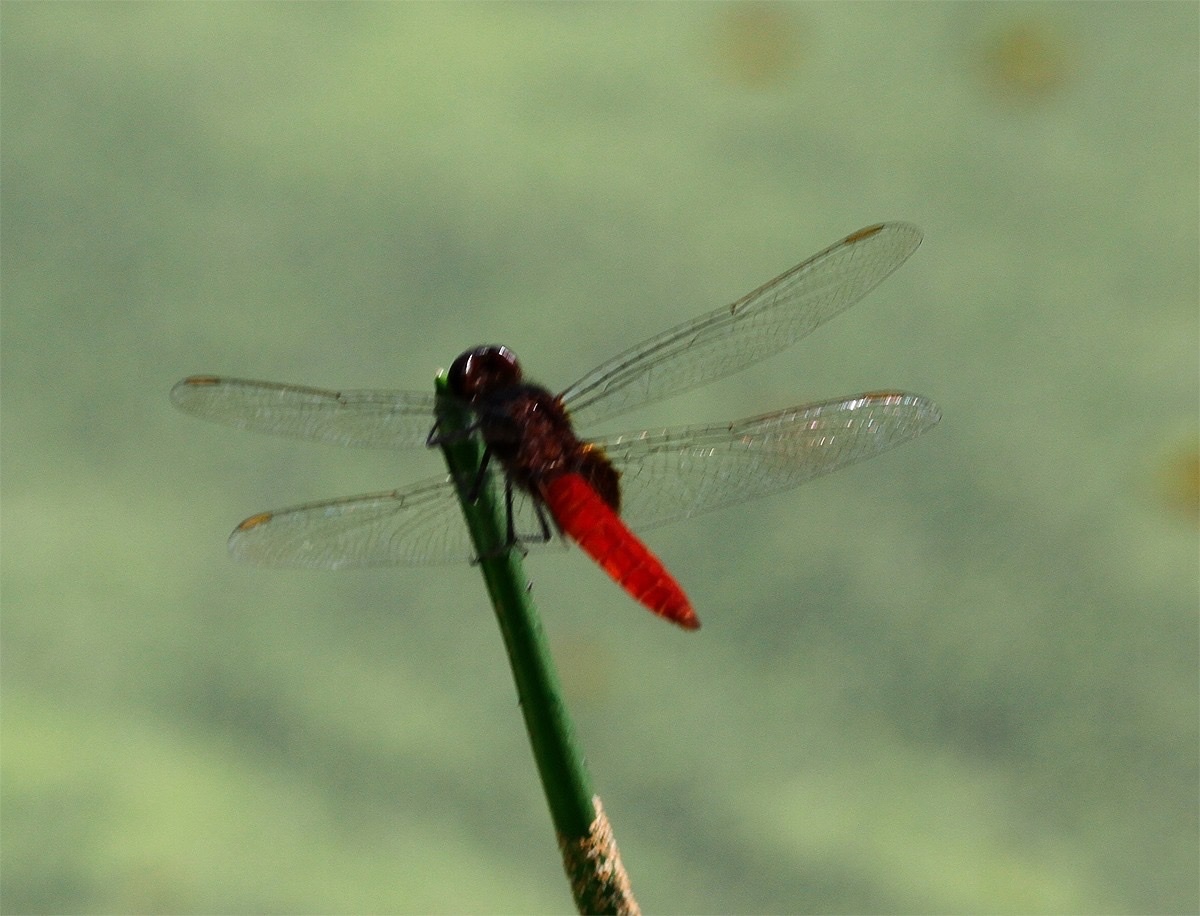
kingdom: Animalia
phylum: Arthropoda
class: Insecta
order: Odonata
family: Libellulidae
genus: Erythemis
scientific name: Erythemis mithroides
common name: Claret pondhawk
